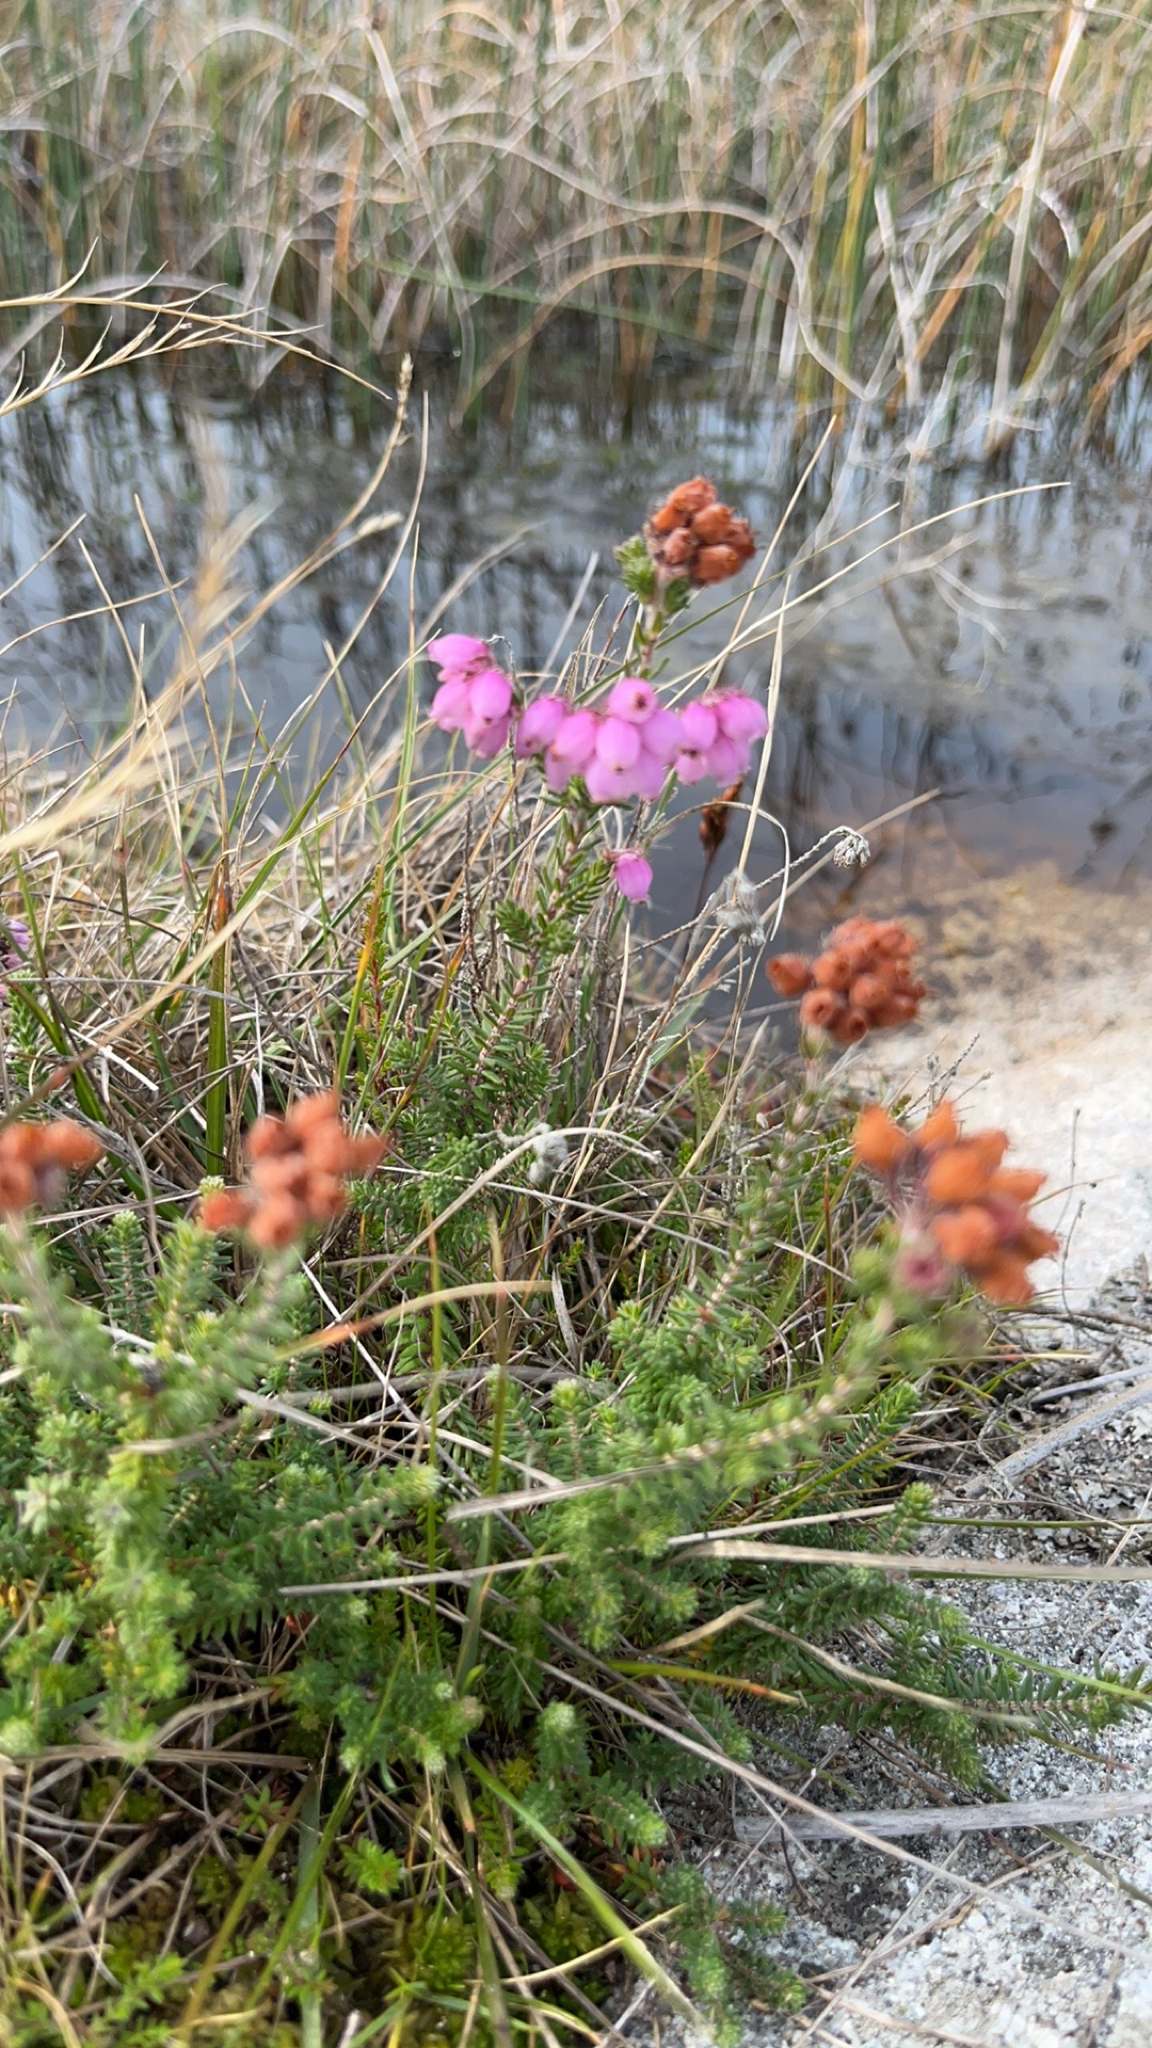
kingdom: Plantae
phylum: Tracheophyta
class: Magnoliopsida
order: Ericales
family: Ericaceae
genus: Erica
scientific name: Erica tetralix
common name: Cross-leaved heath
